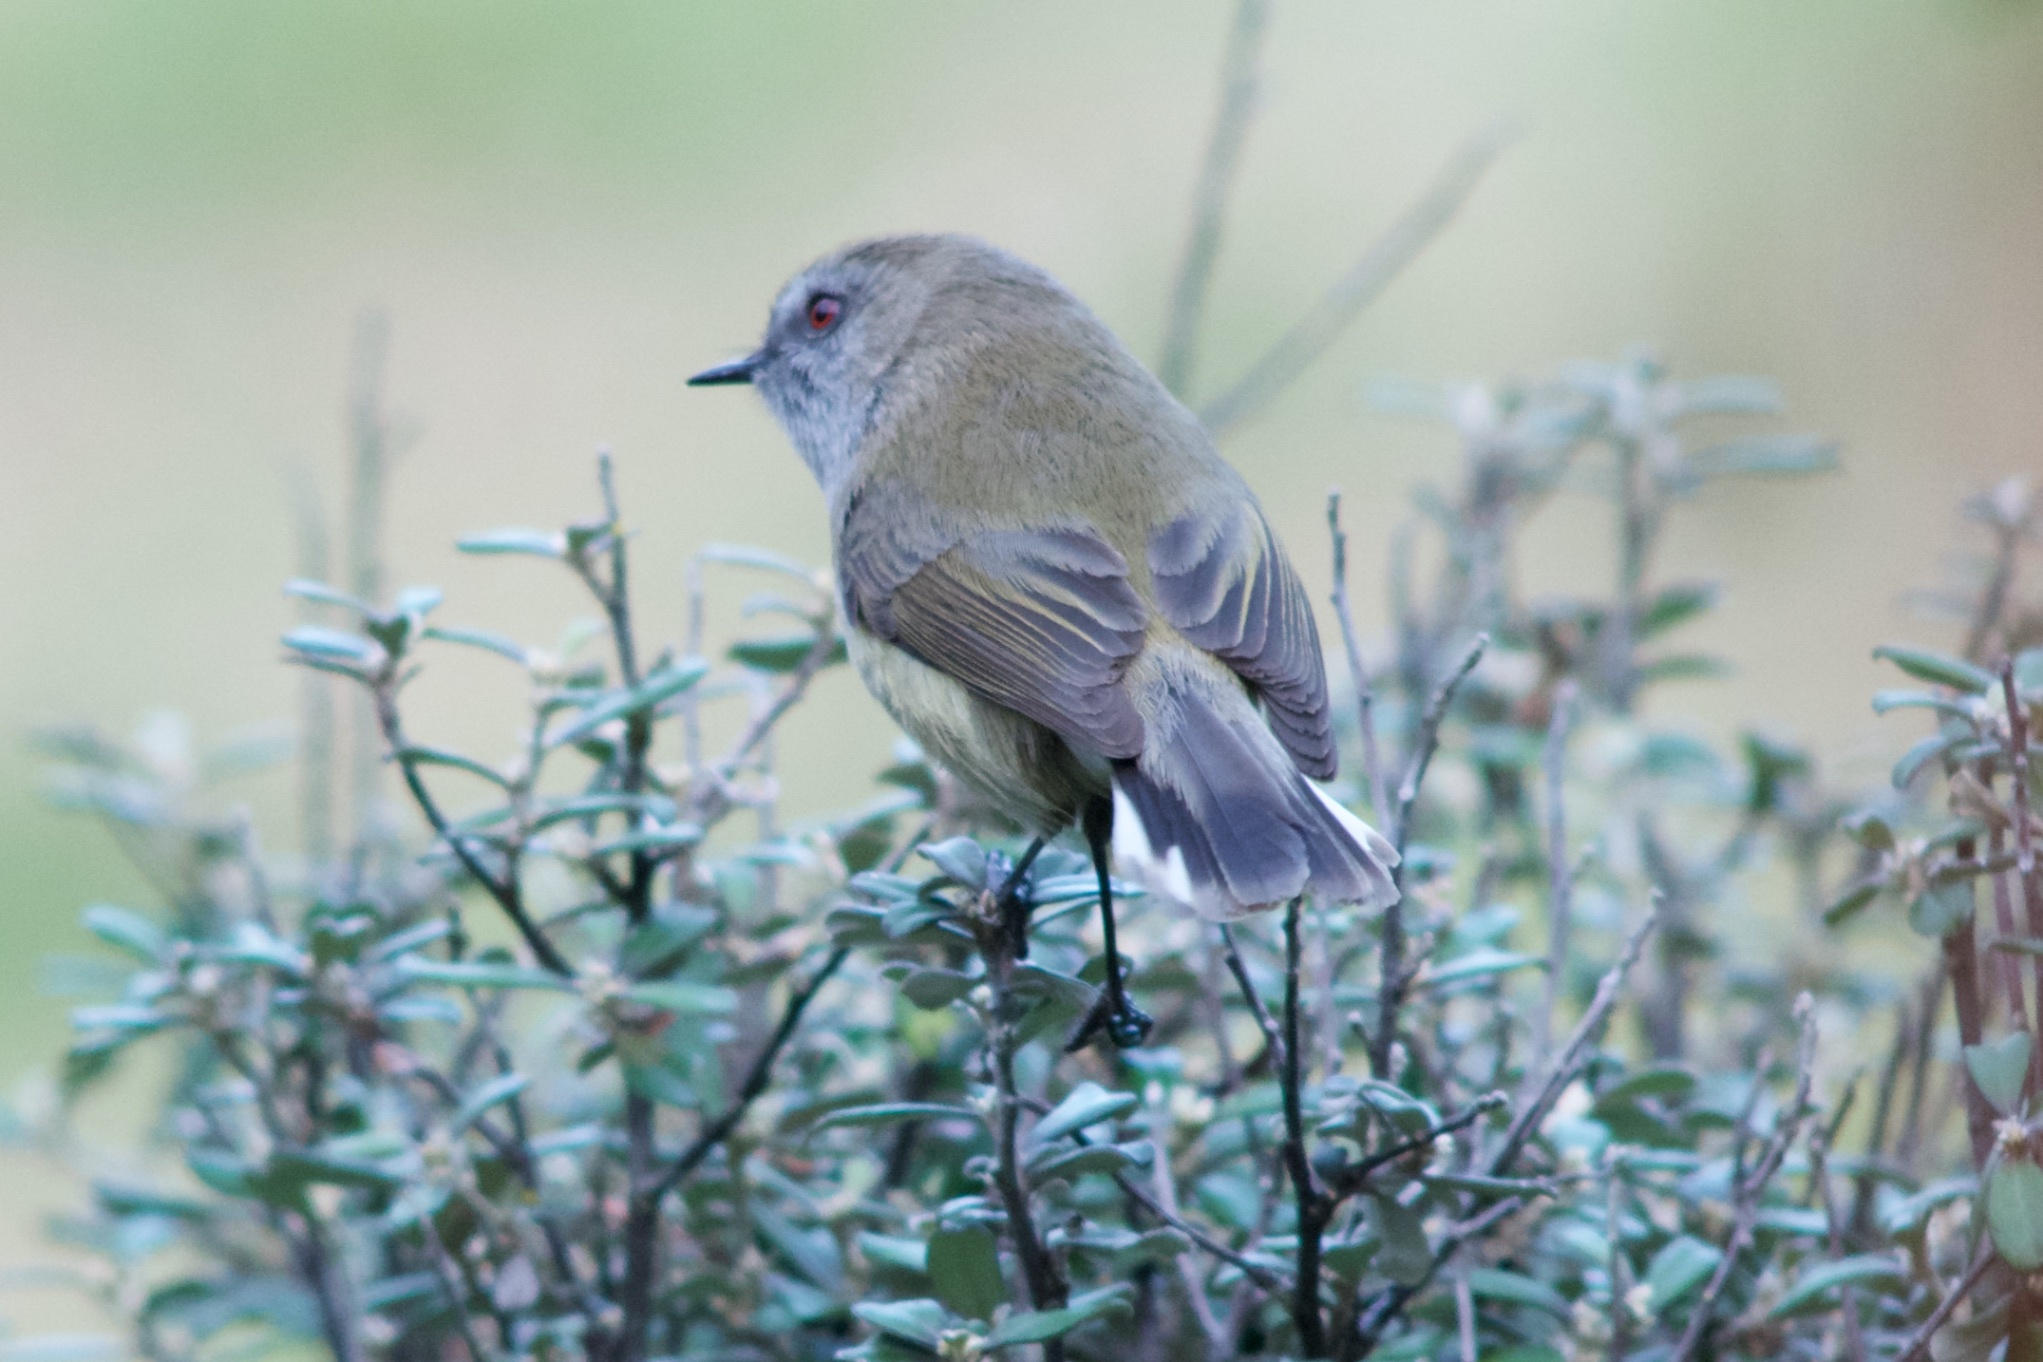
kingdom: Animalia
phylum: Chordata
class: Aves
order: Passeriformes
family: Acanthizidae
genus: Gerygone
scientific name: Gerygone igata
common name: Grey gerygone
